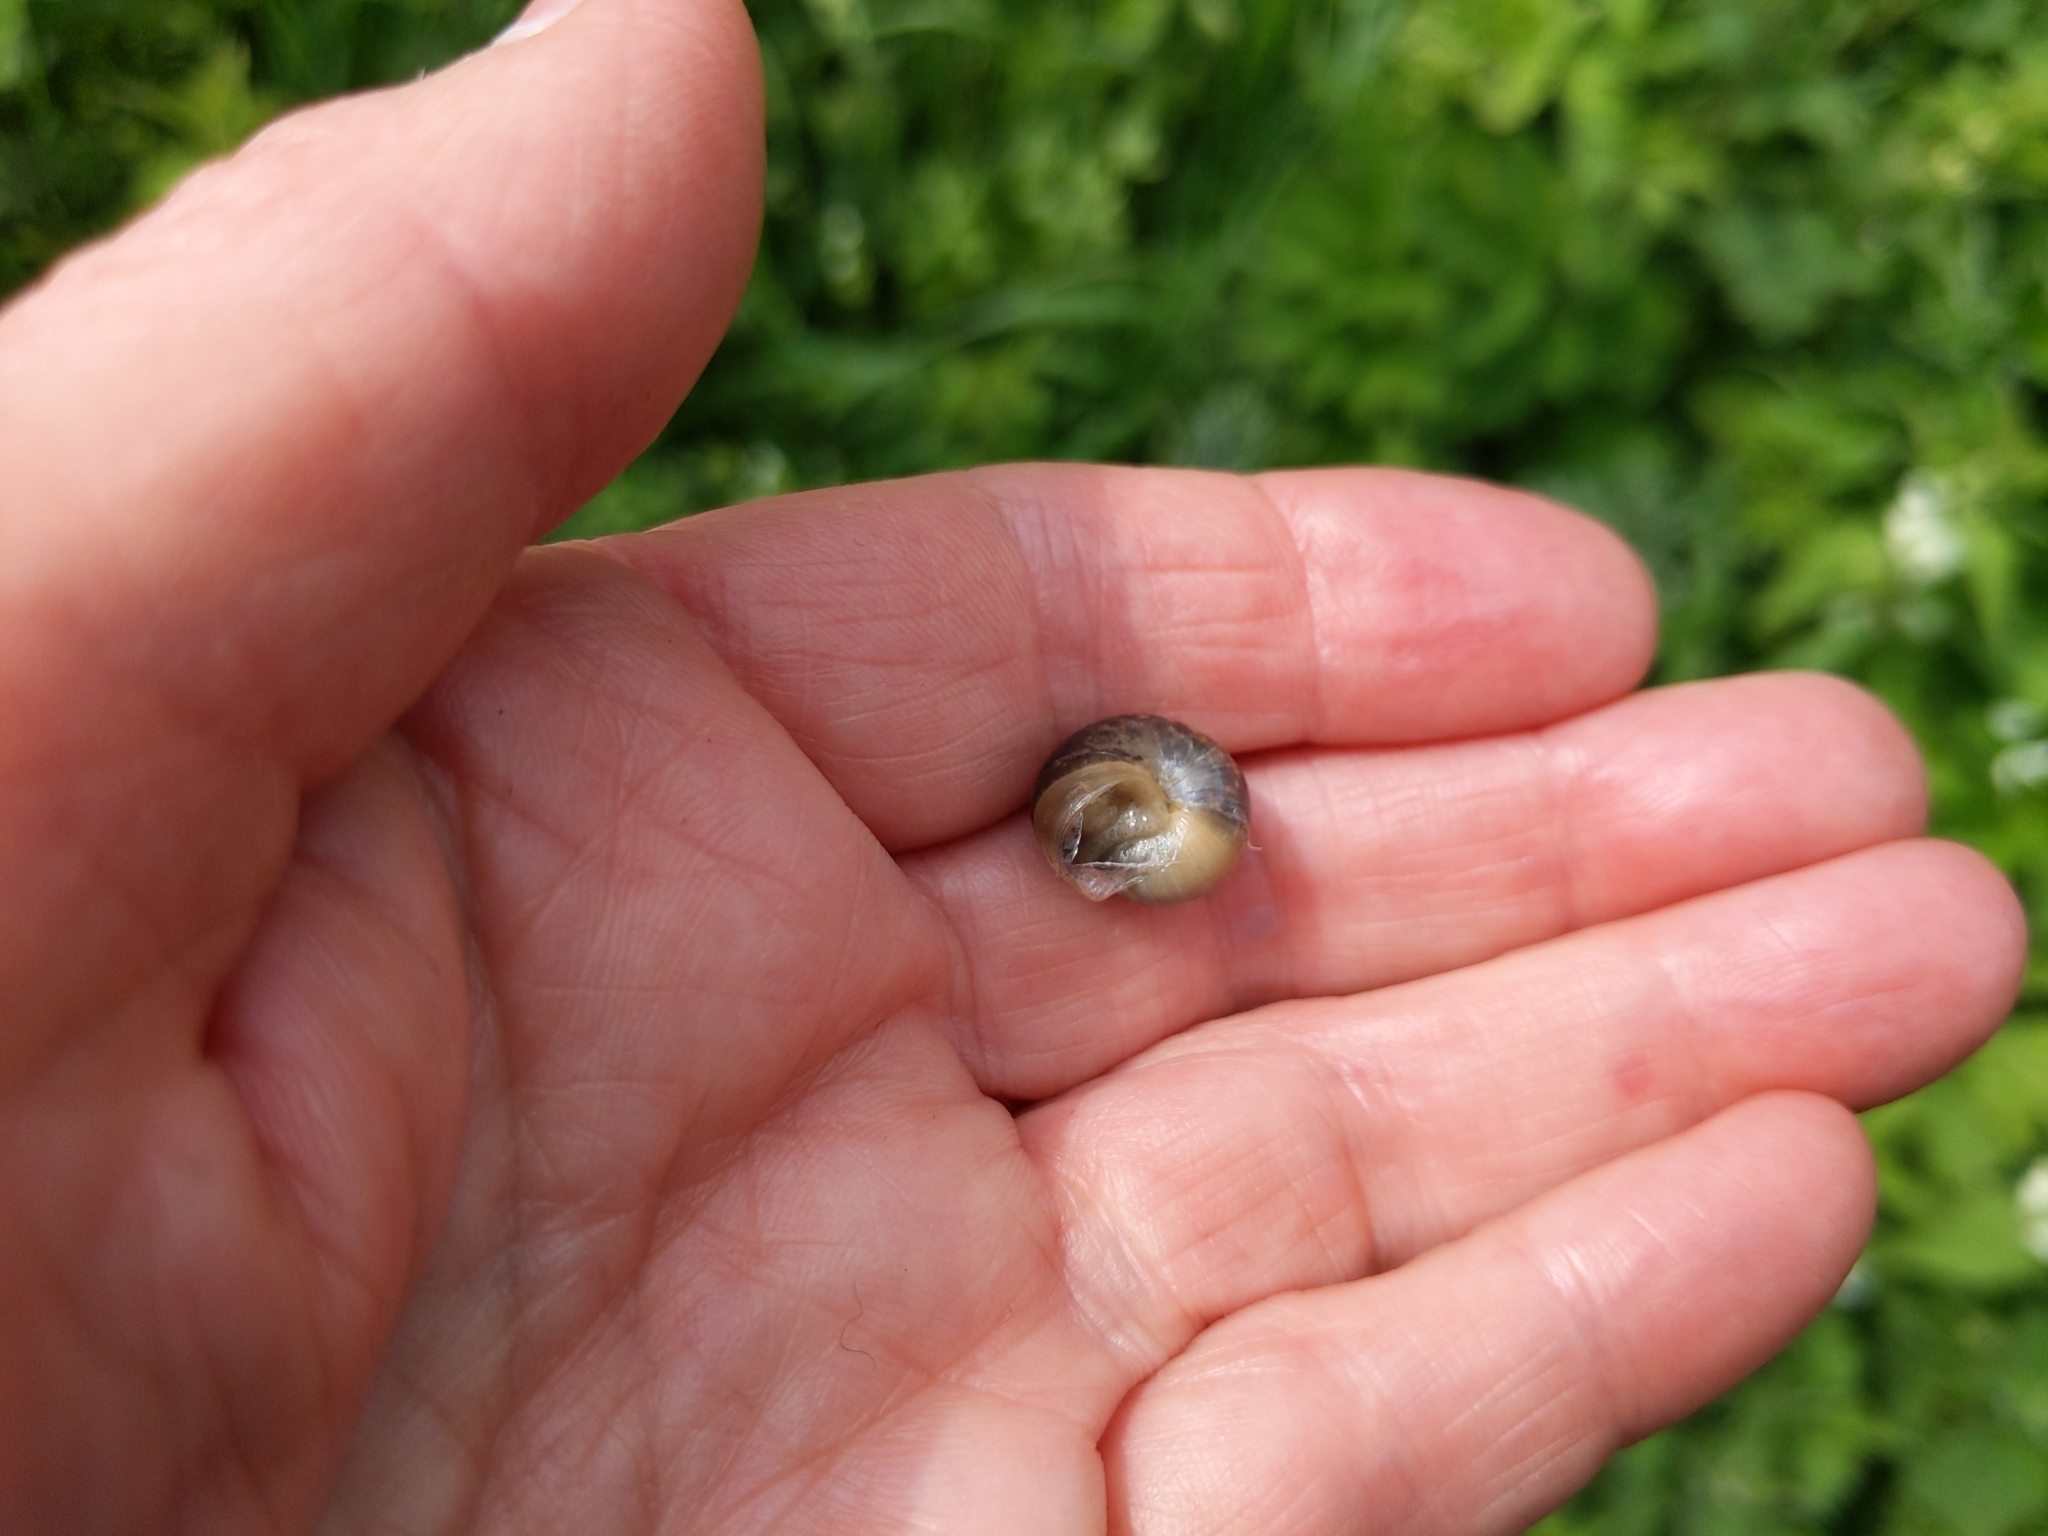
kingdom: Animalia
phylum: Mollusca
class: Gastropoda
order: Stylommatophora
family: Hygromiidae
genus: Monacha
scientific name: Monacha cantiana
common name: Kentish snail
